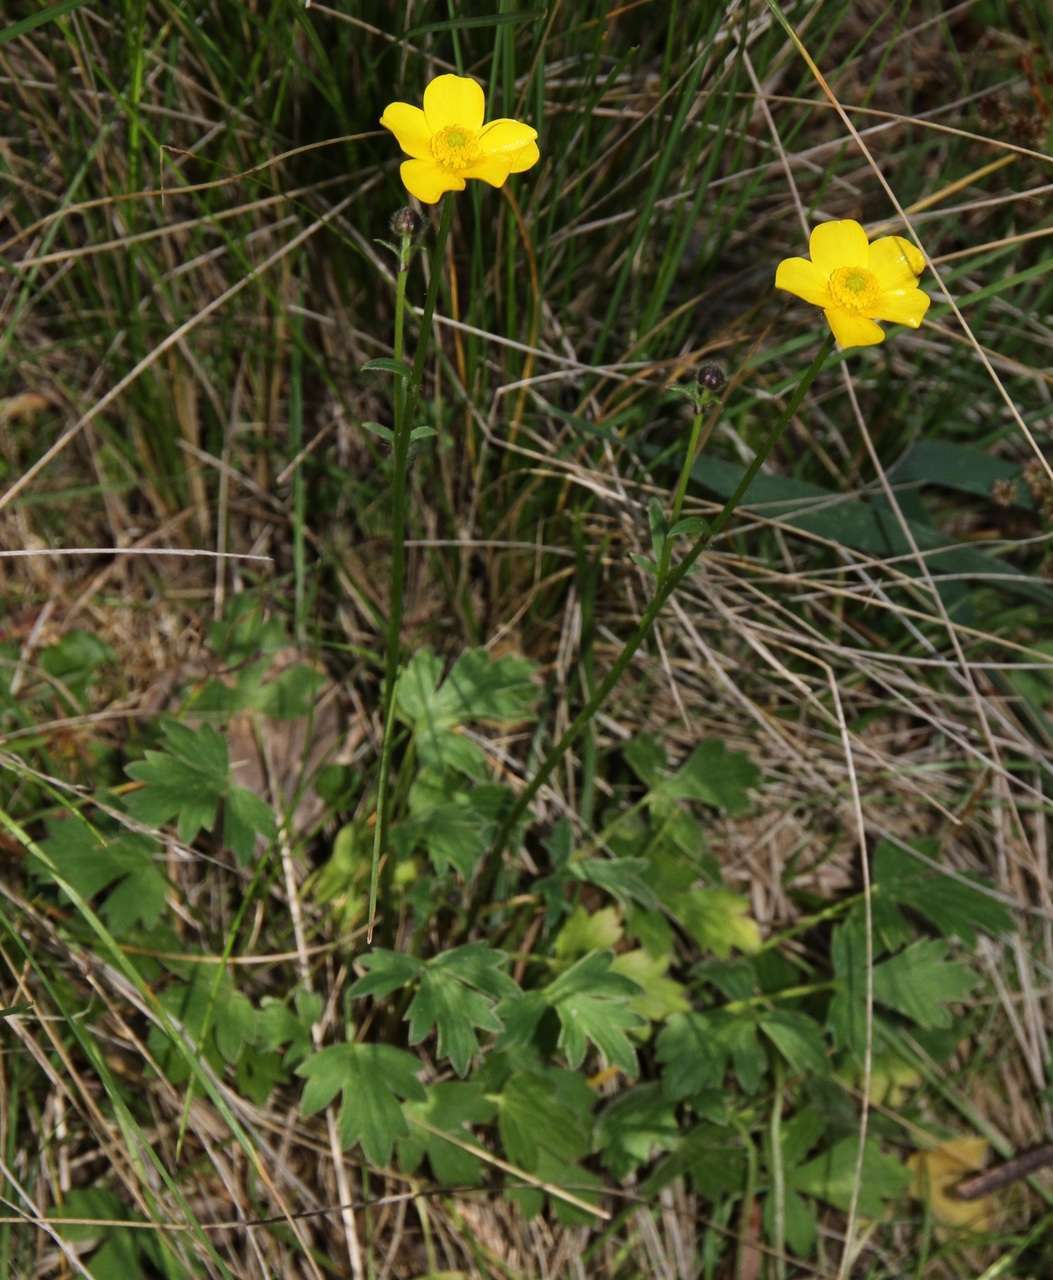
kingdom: Plantae
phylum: Tracheophyta
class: Magnoliopsida
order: Ranunculales
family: Ranunculaceae
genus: Ranunculus
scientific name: Ranunculus lappaceus
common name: Australian buttercup
